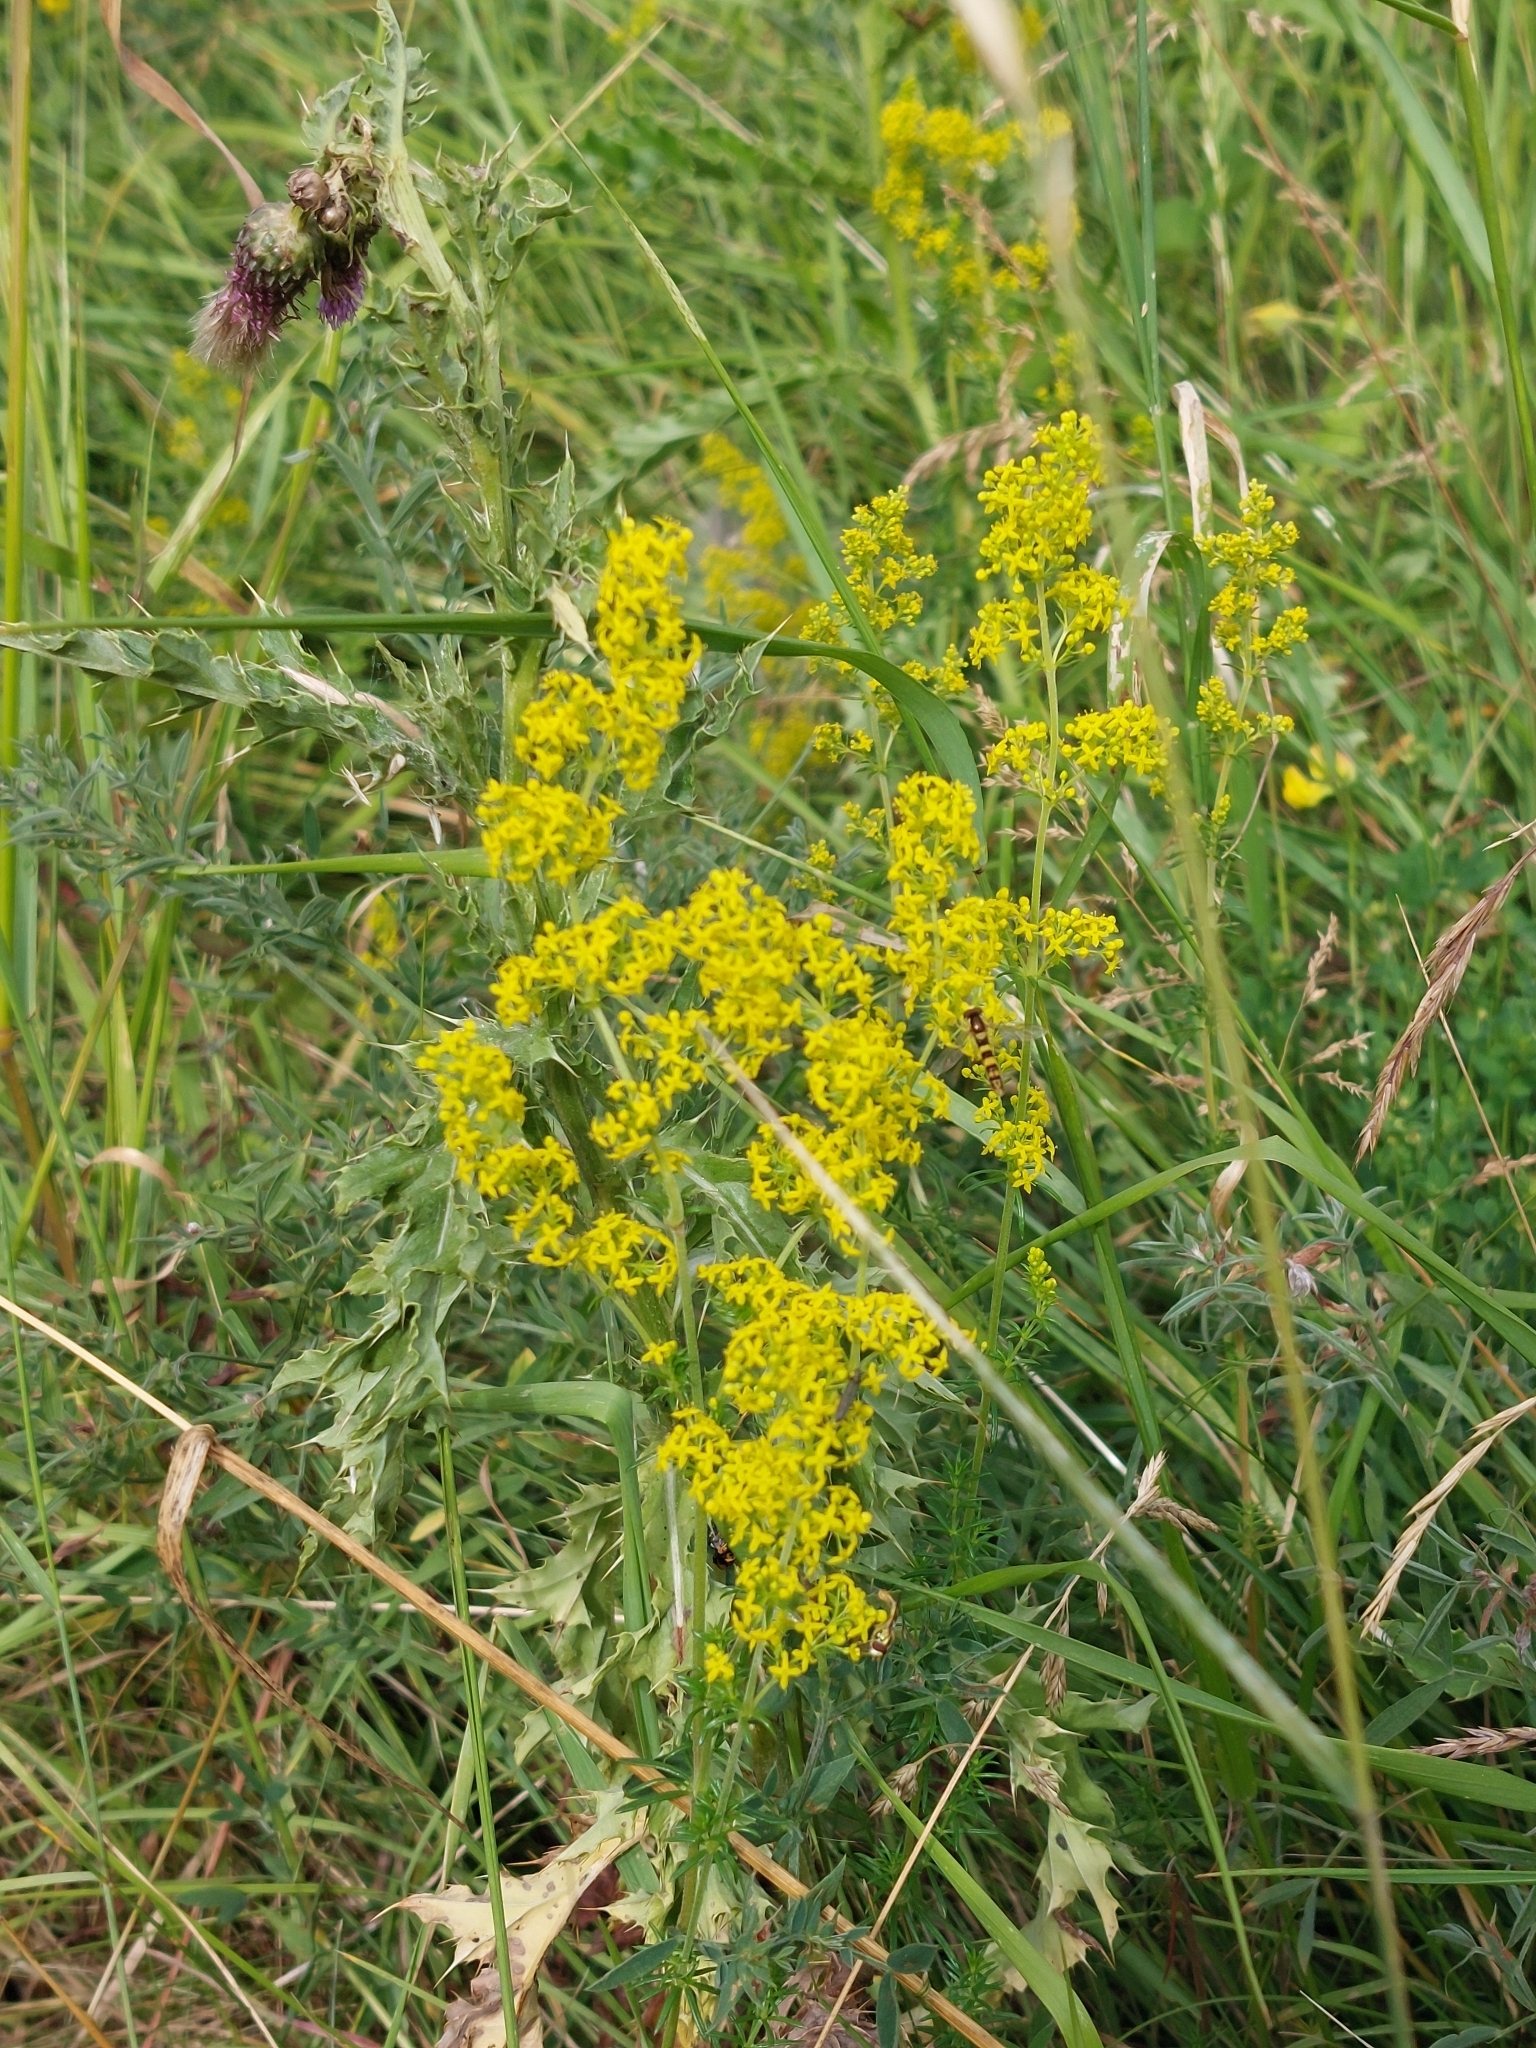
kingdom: Plantae
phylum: Tracheophyta
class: Magnoliopsida
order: Gentianales
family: Rubiaceae
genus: Galium
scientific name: Galium verum
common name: Lady's bedstraw
